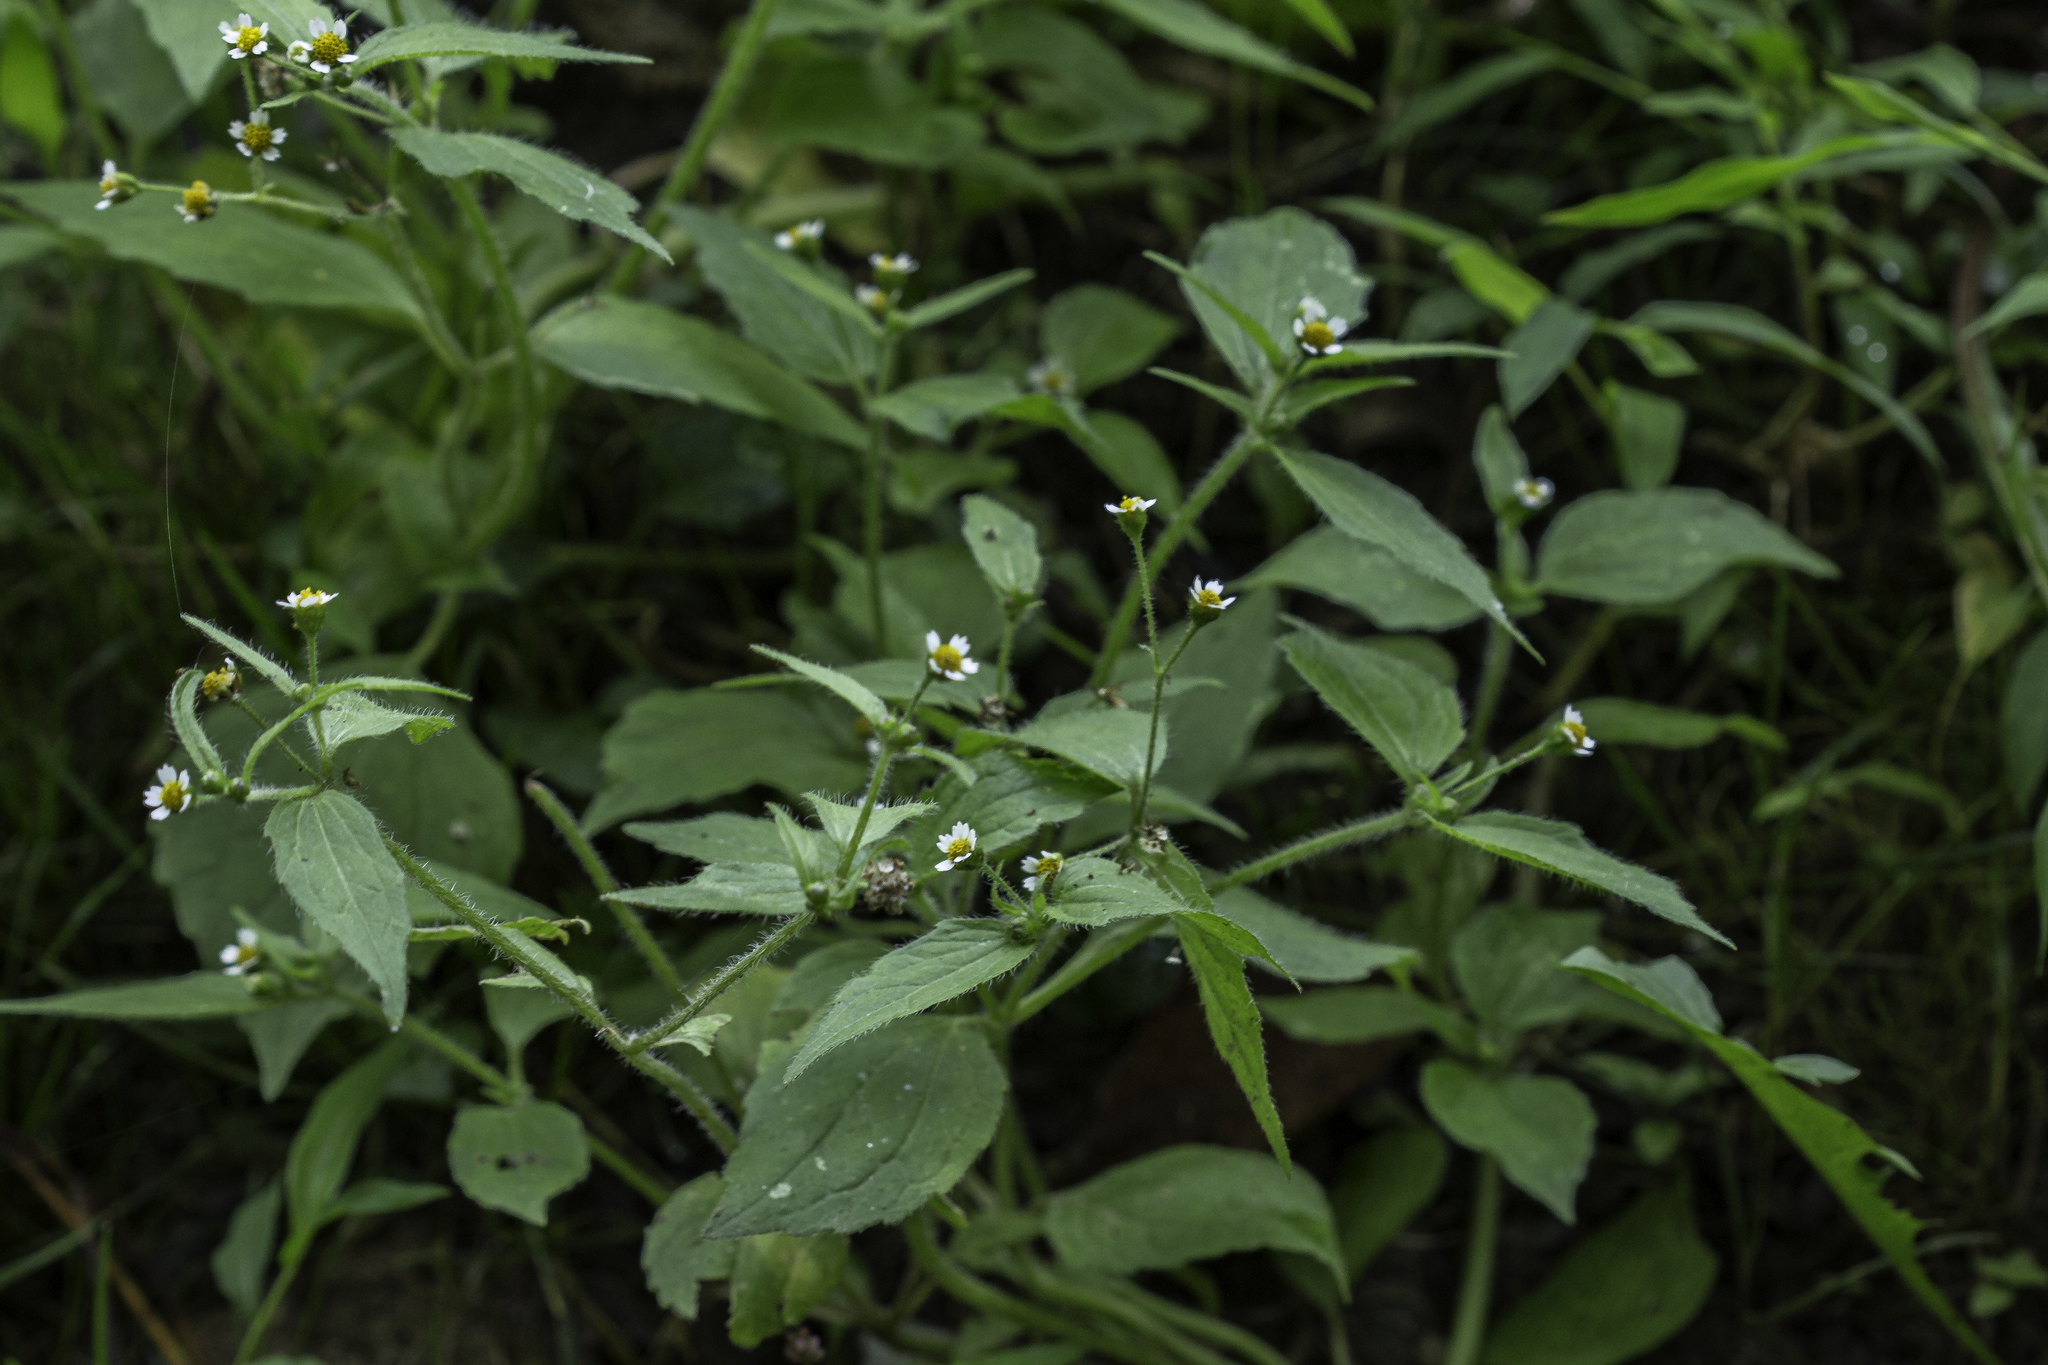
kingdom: Plantae
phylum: Tracheophyta
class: Magnoliopsida
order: Asterales
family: Asteraceae
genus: Galinsoga
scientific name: Galinsoga quadriradiata
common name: Shaggy soldier
